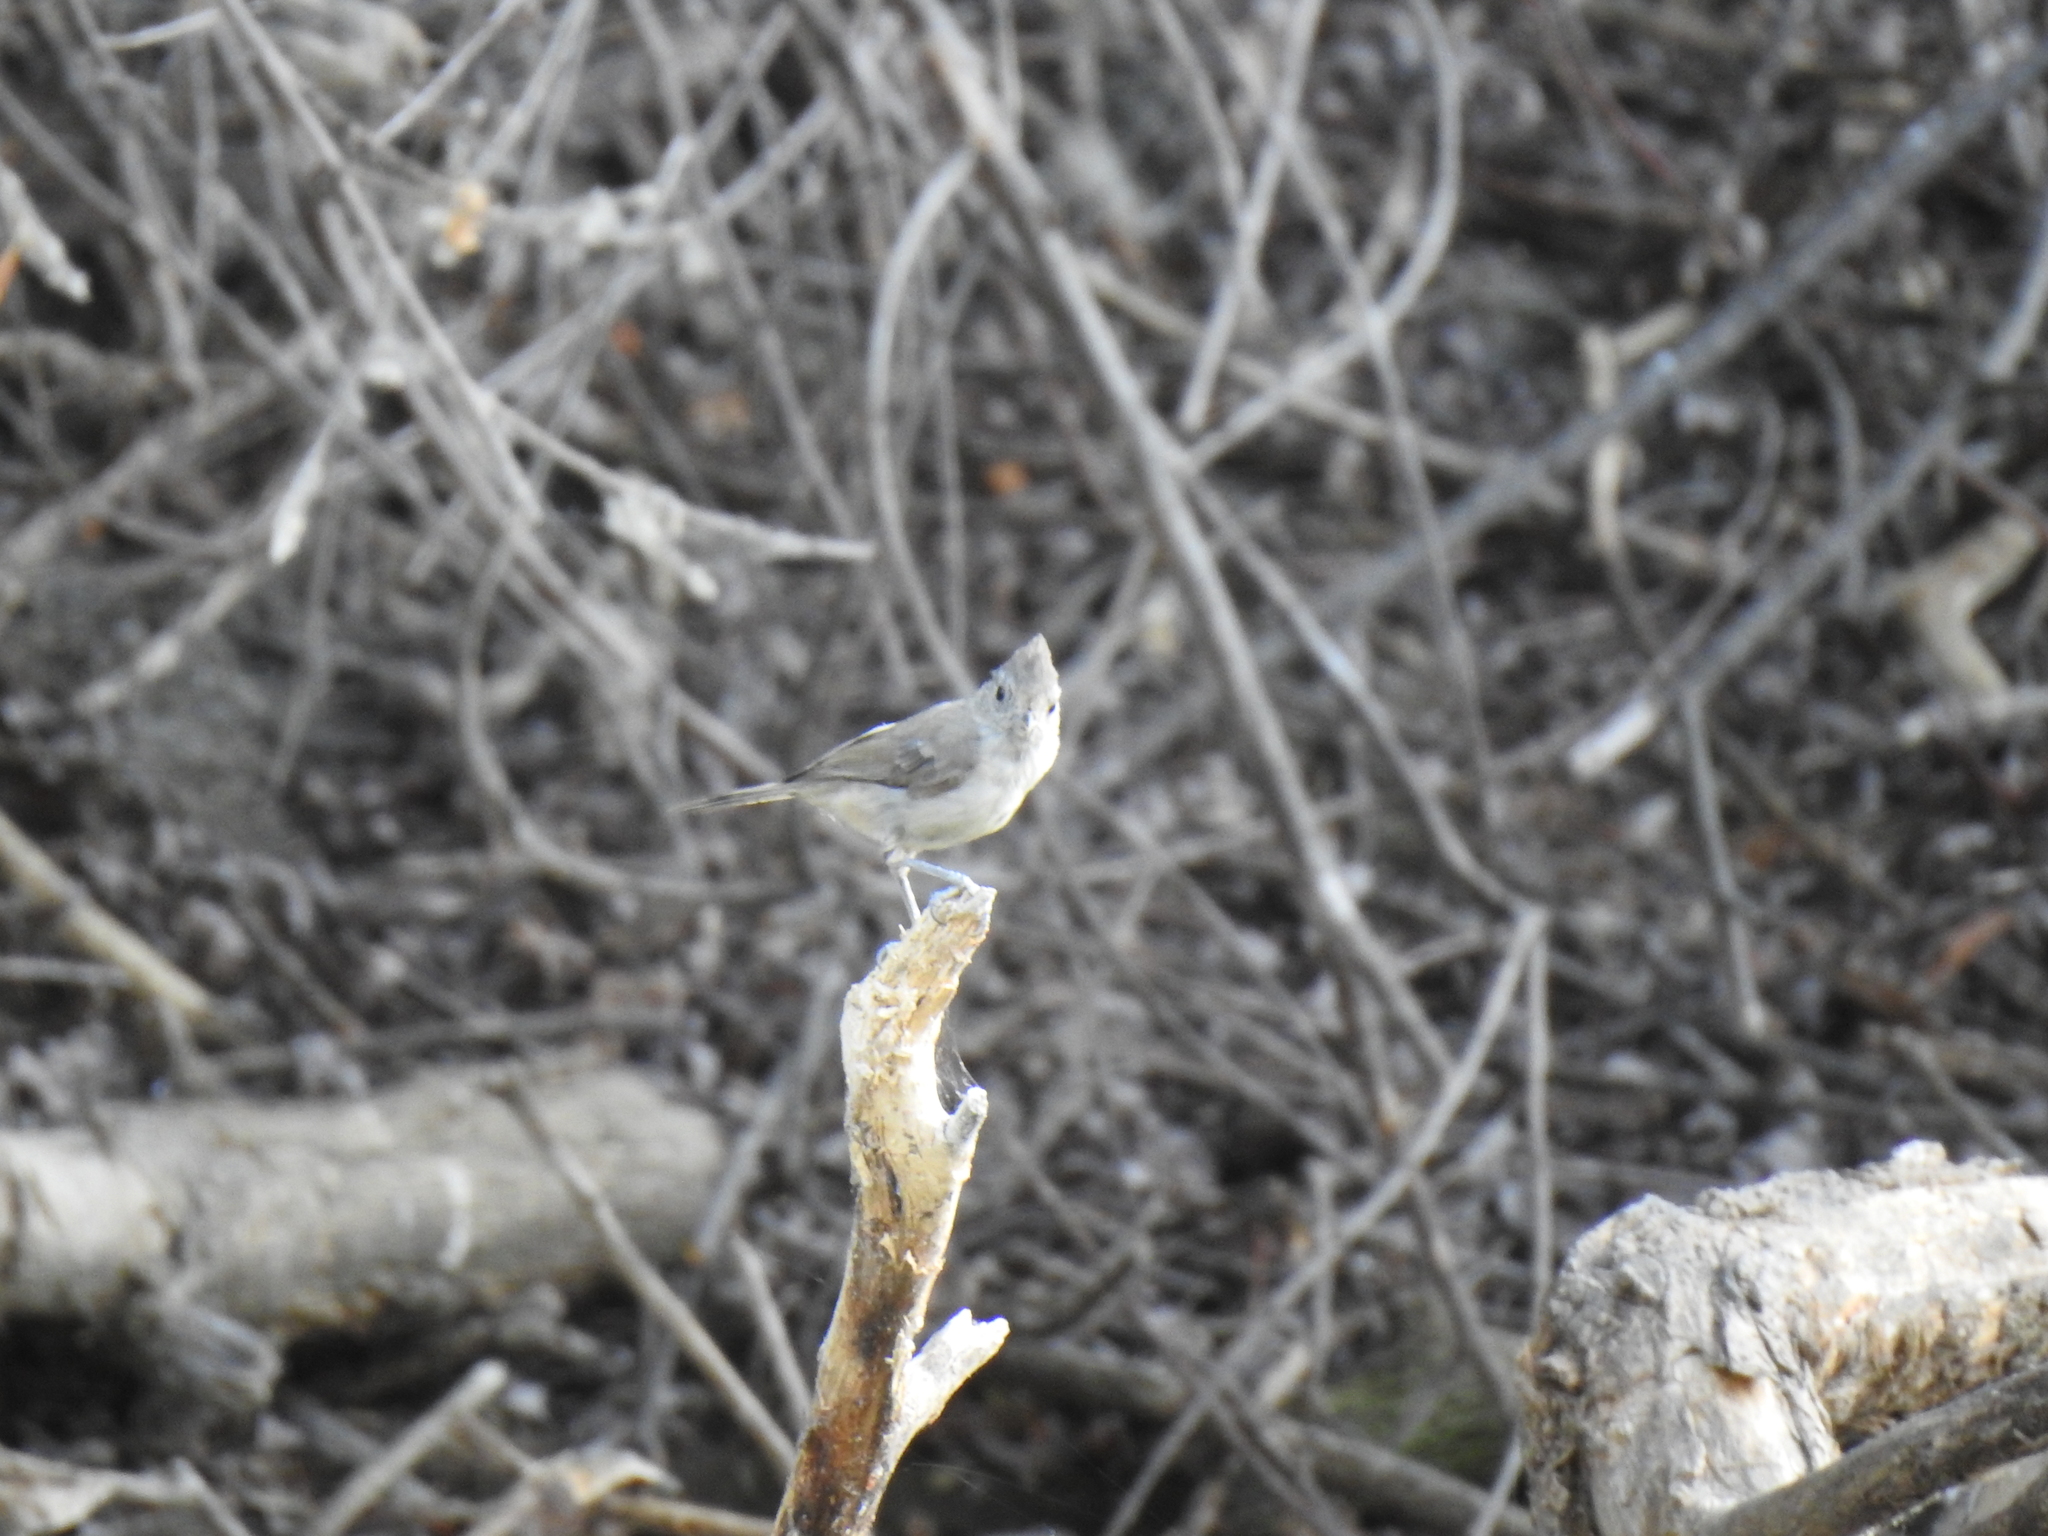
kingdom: Animalia
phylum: Chordata
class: Aves
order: Passeriformes
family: Paridae
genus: Baeolophus
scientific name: Baeolophus inornatus
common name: Oak titmouse
